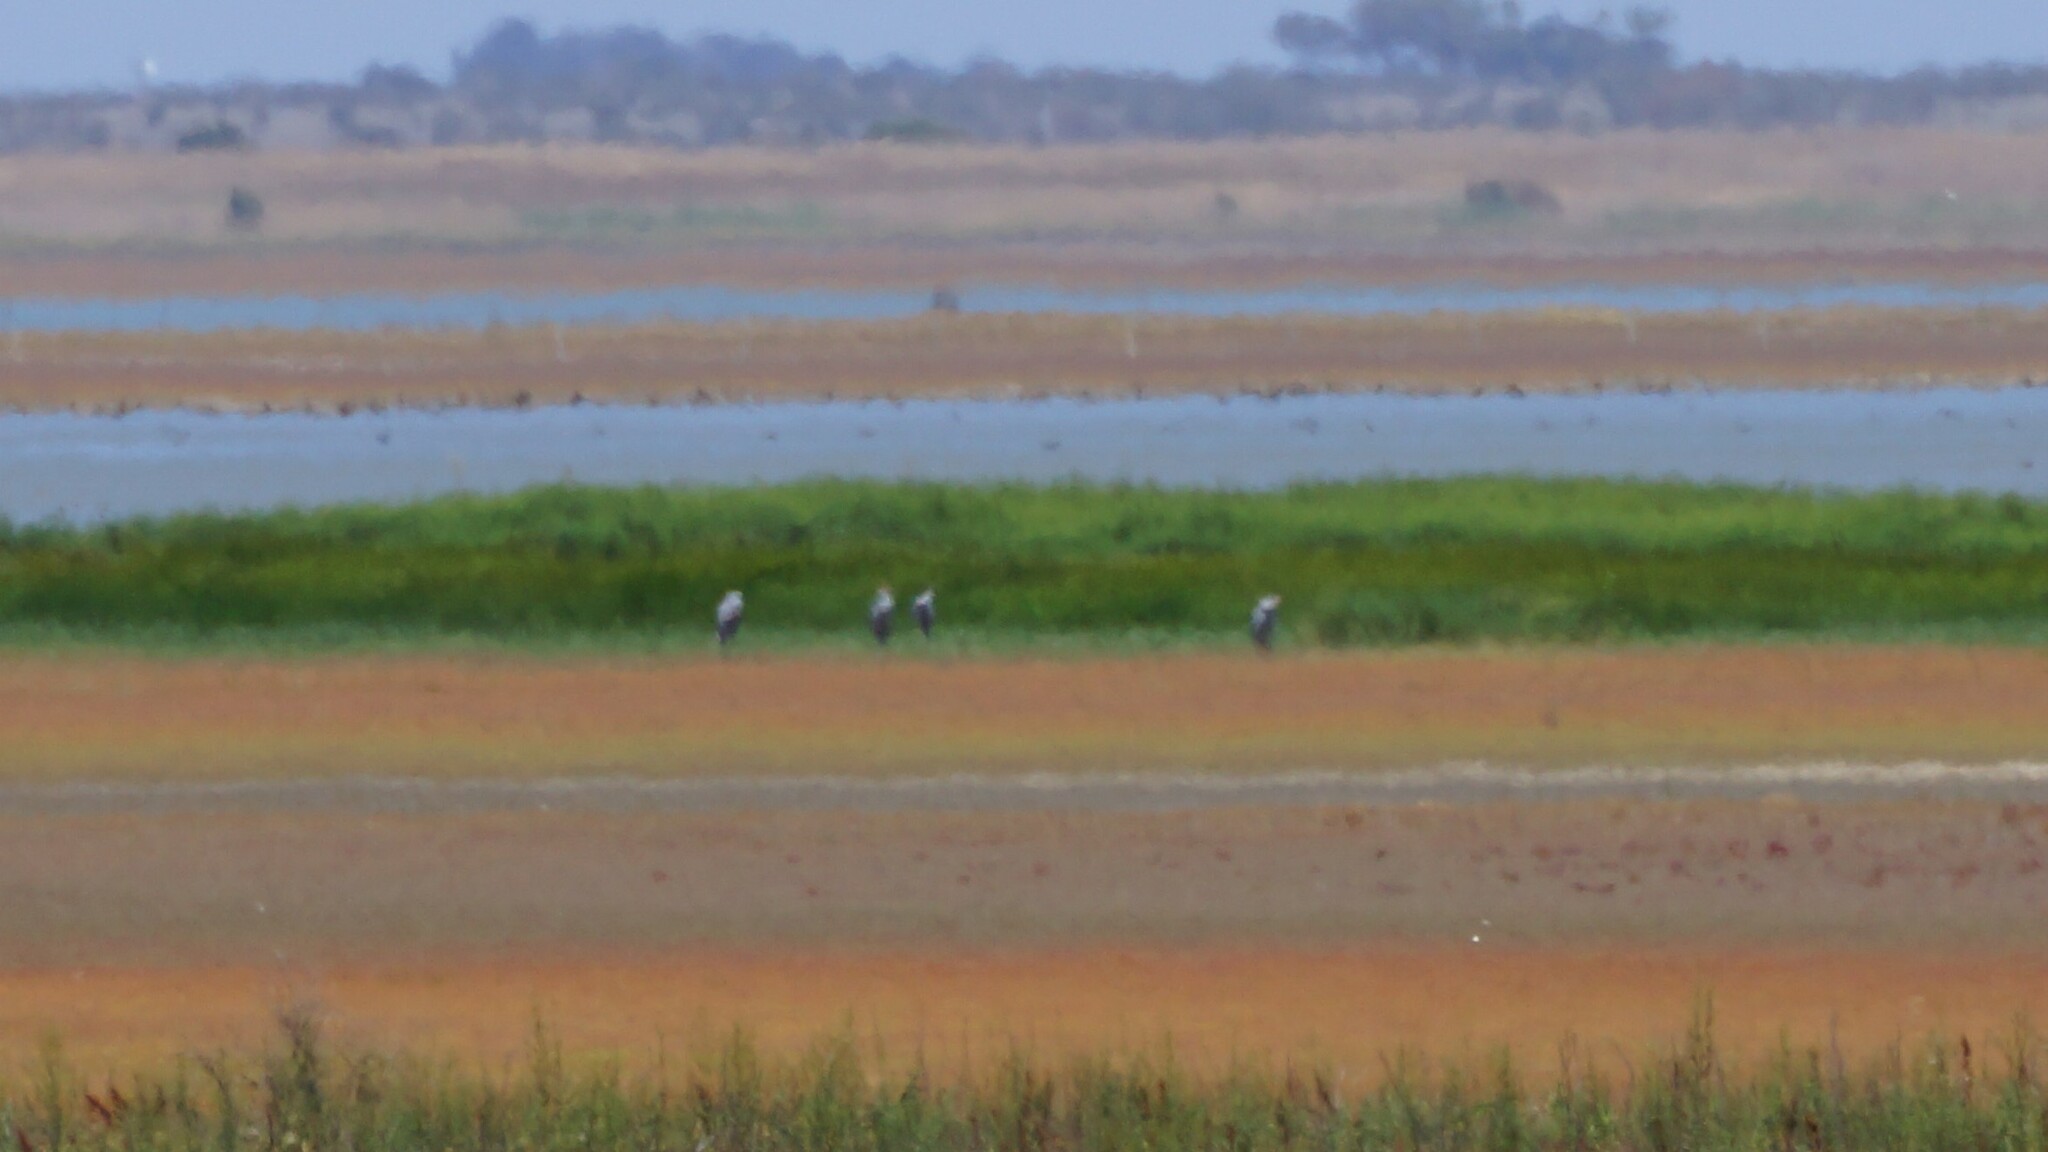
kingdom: Animalia
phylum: Chordata
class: Aves
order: Gruiformes
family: Gruidae
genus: Grus
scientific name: Grus rubicunda
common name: Brolga
